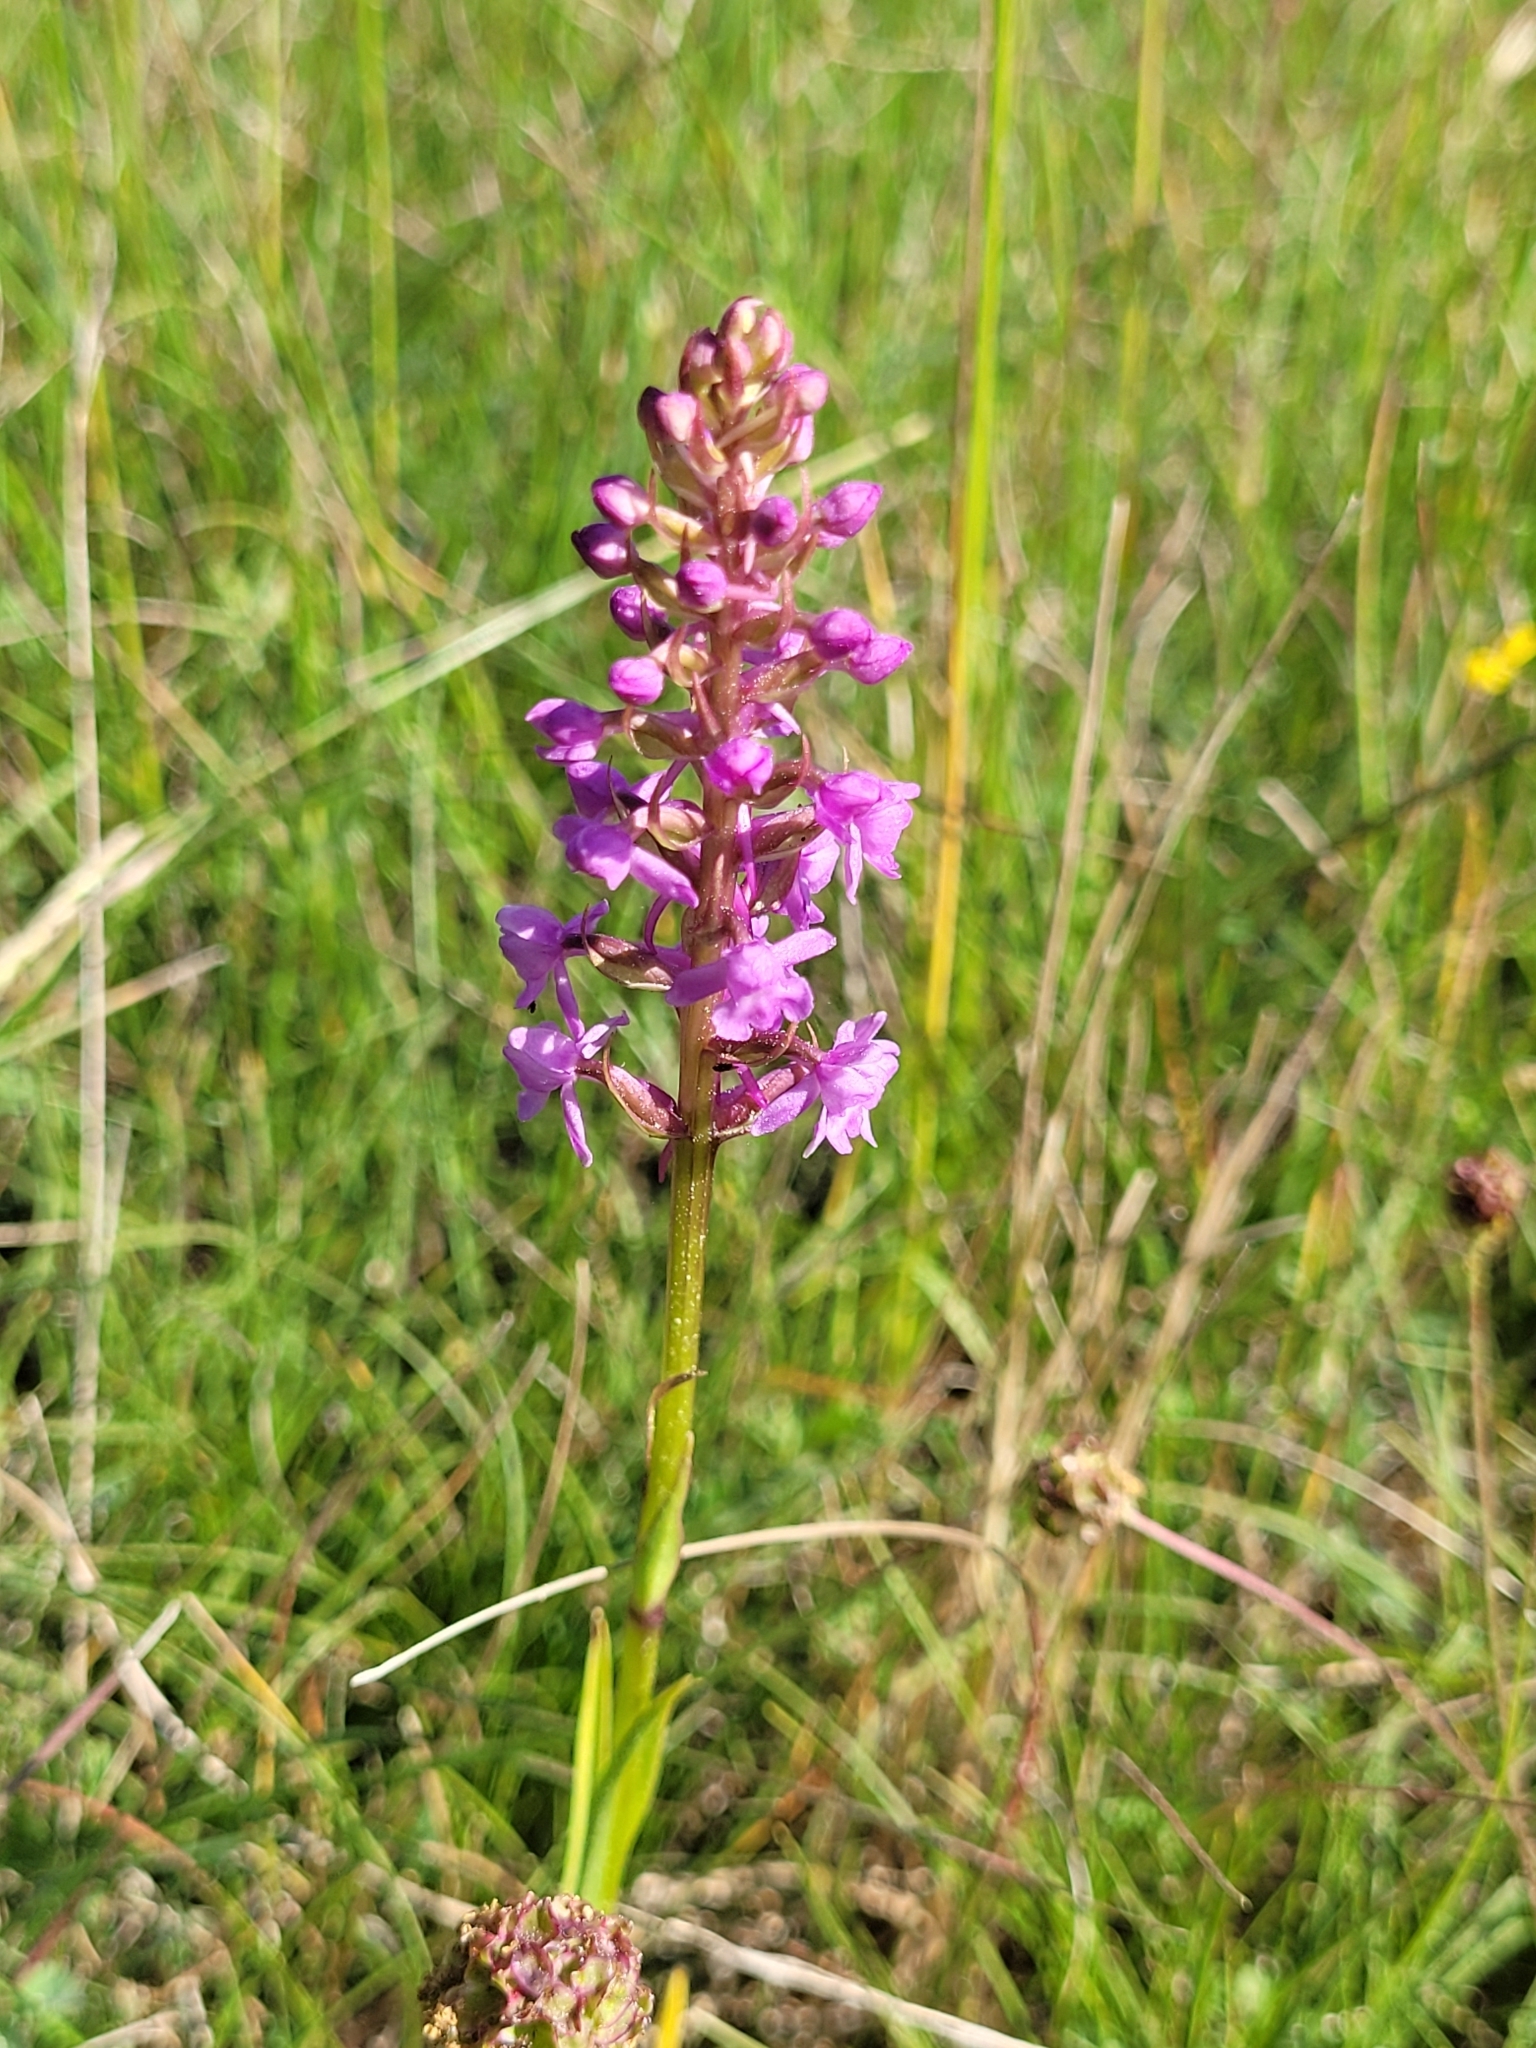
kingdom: Plantae
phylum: Tracheophyta
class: Liliopsida
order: Asparagales
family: Orchidaceae
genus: Gymnadenia
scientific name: Gymnadenia conopsea
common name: Fragrant orchid
